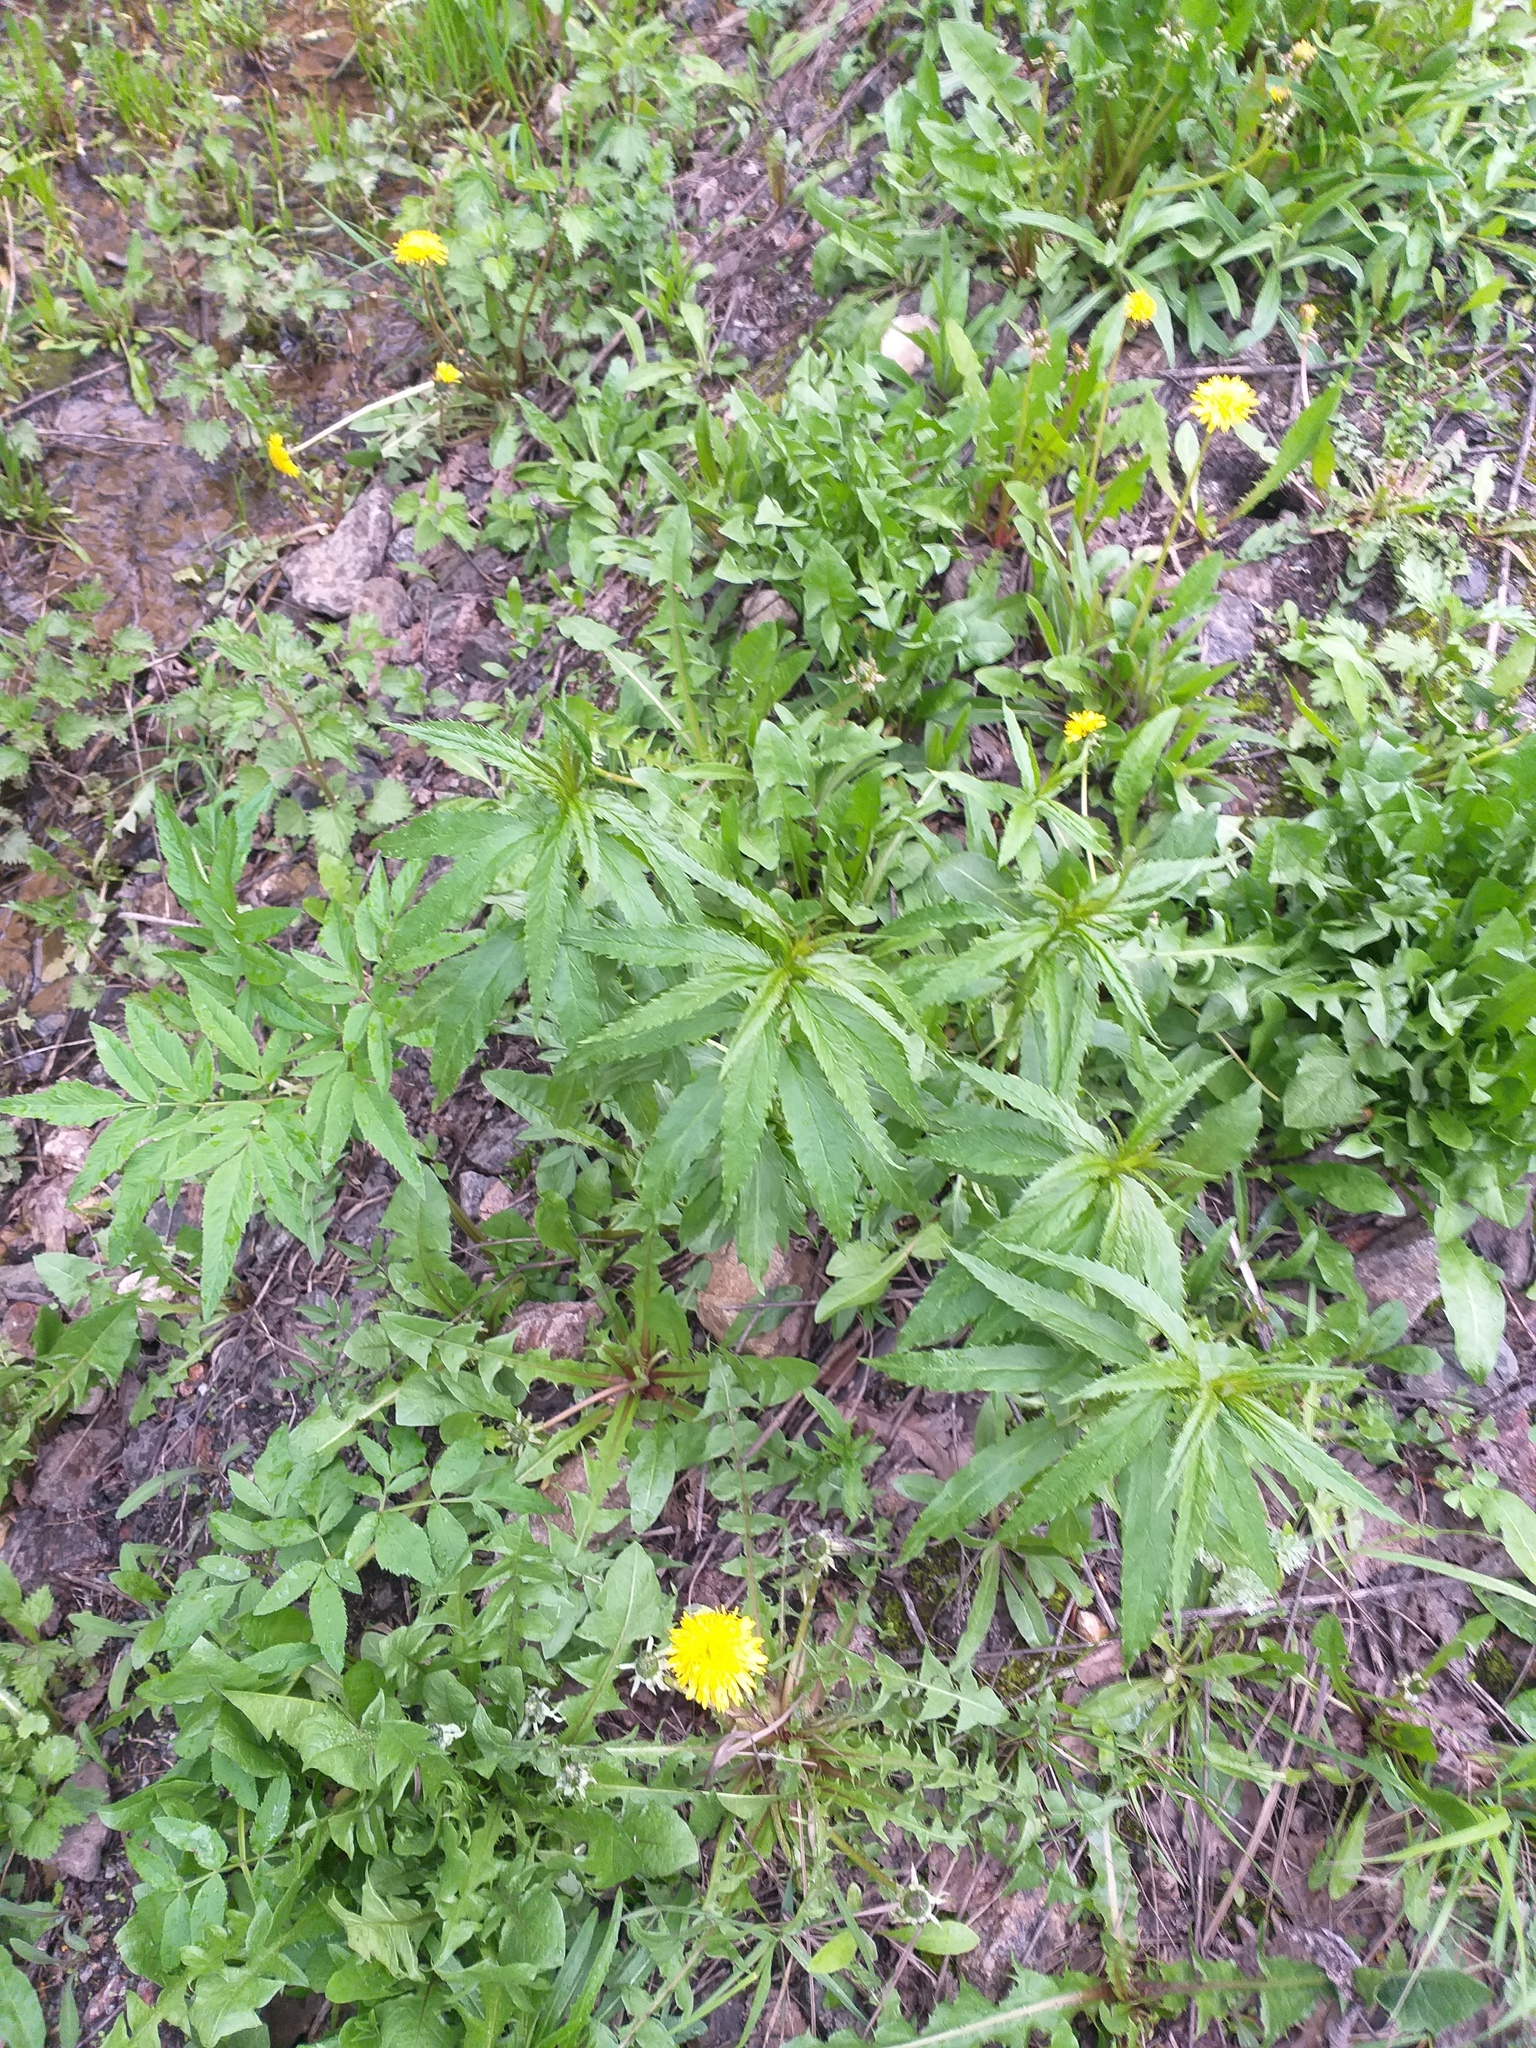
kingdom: Plantae
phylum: Tracheophyta
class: Magnoliopsida
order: Lamiales
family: Plantaginaceae
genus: Veronica
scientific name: Veronica longifolia
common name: Garden speedwell
